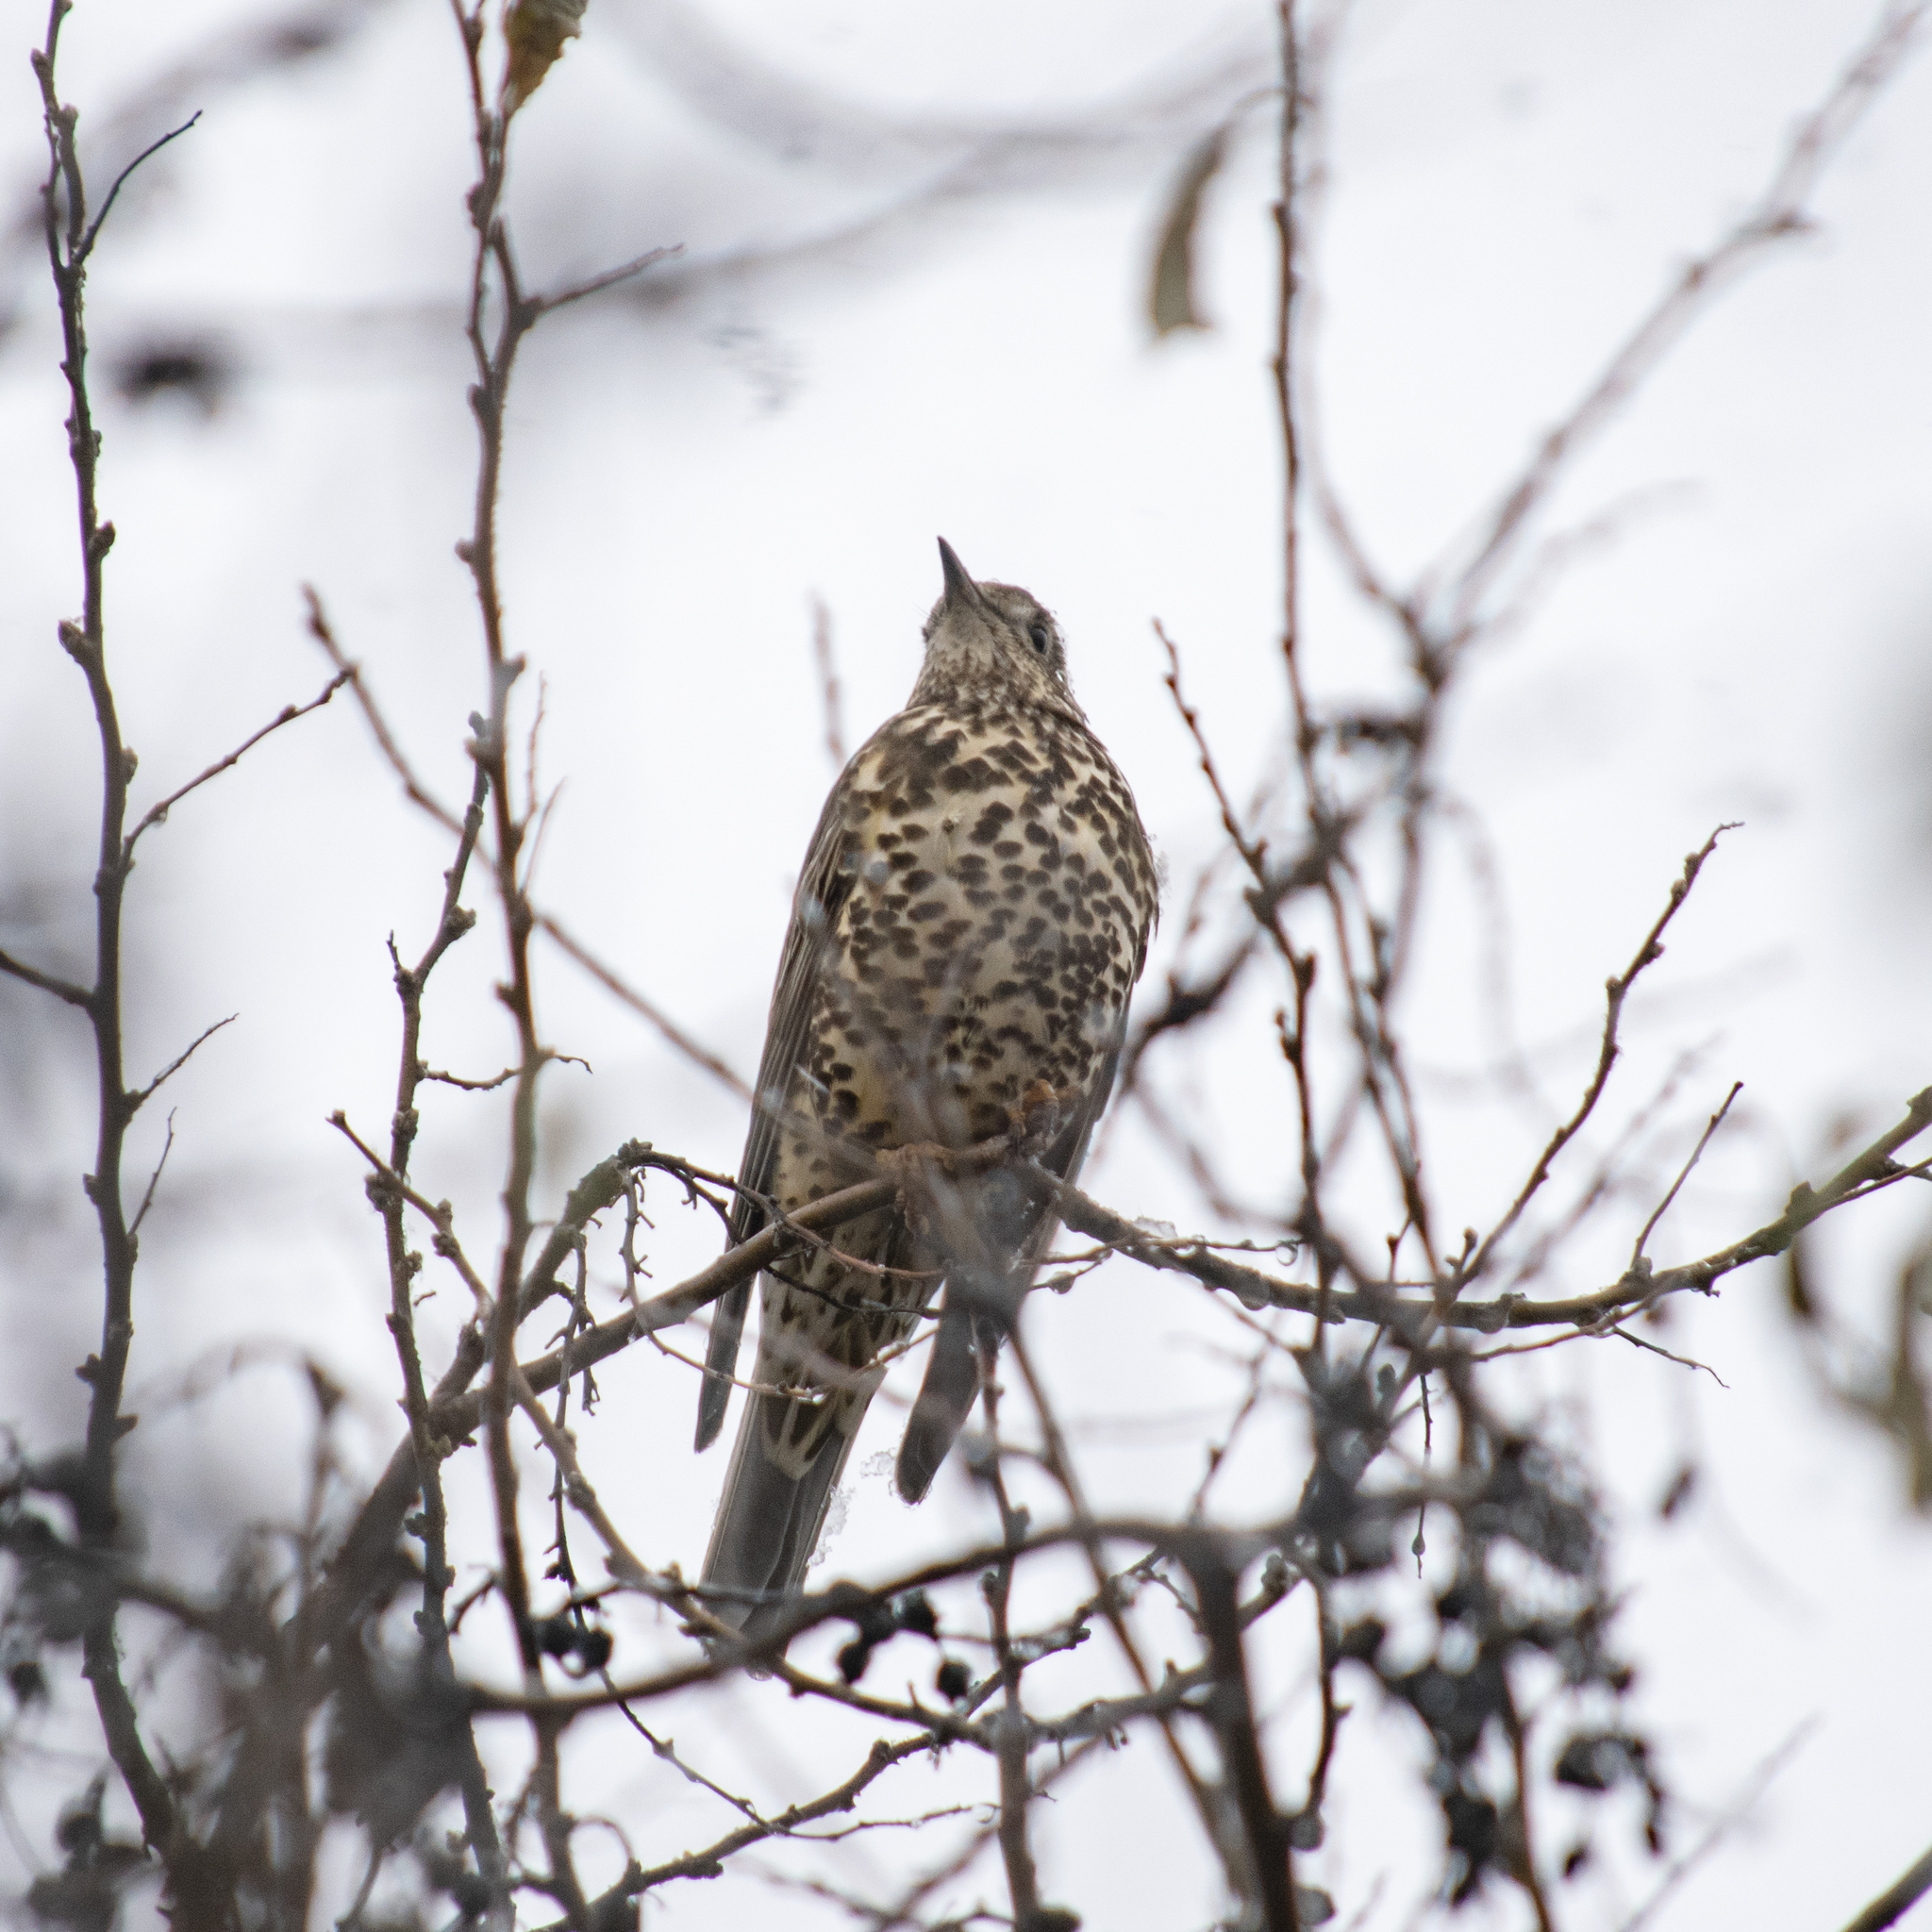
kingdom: Animalia
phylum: Chordata
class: Aves
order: Passeriformes
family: Turdidae
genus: Turdus
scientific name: Turdus viscivorus
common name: Mistle thrush
